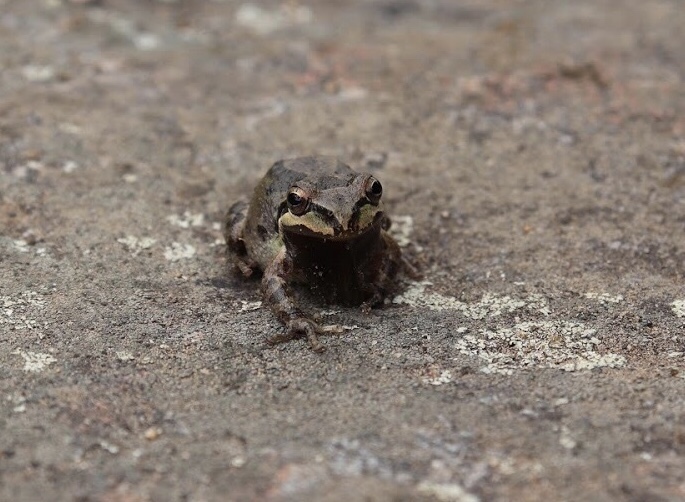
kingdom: Animalia
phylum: Chordata
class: Amphibia
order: Anura
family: Hylidae
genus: Pseudacris
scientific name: Pseudacris regilla
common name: Pacific chorus frog
